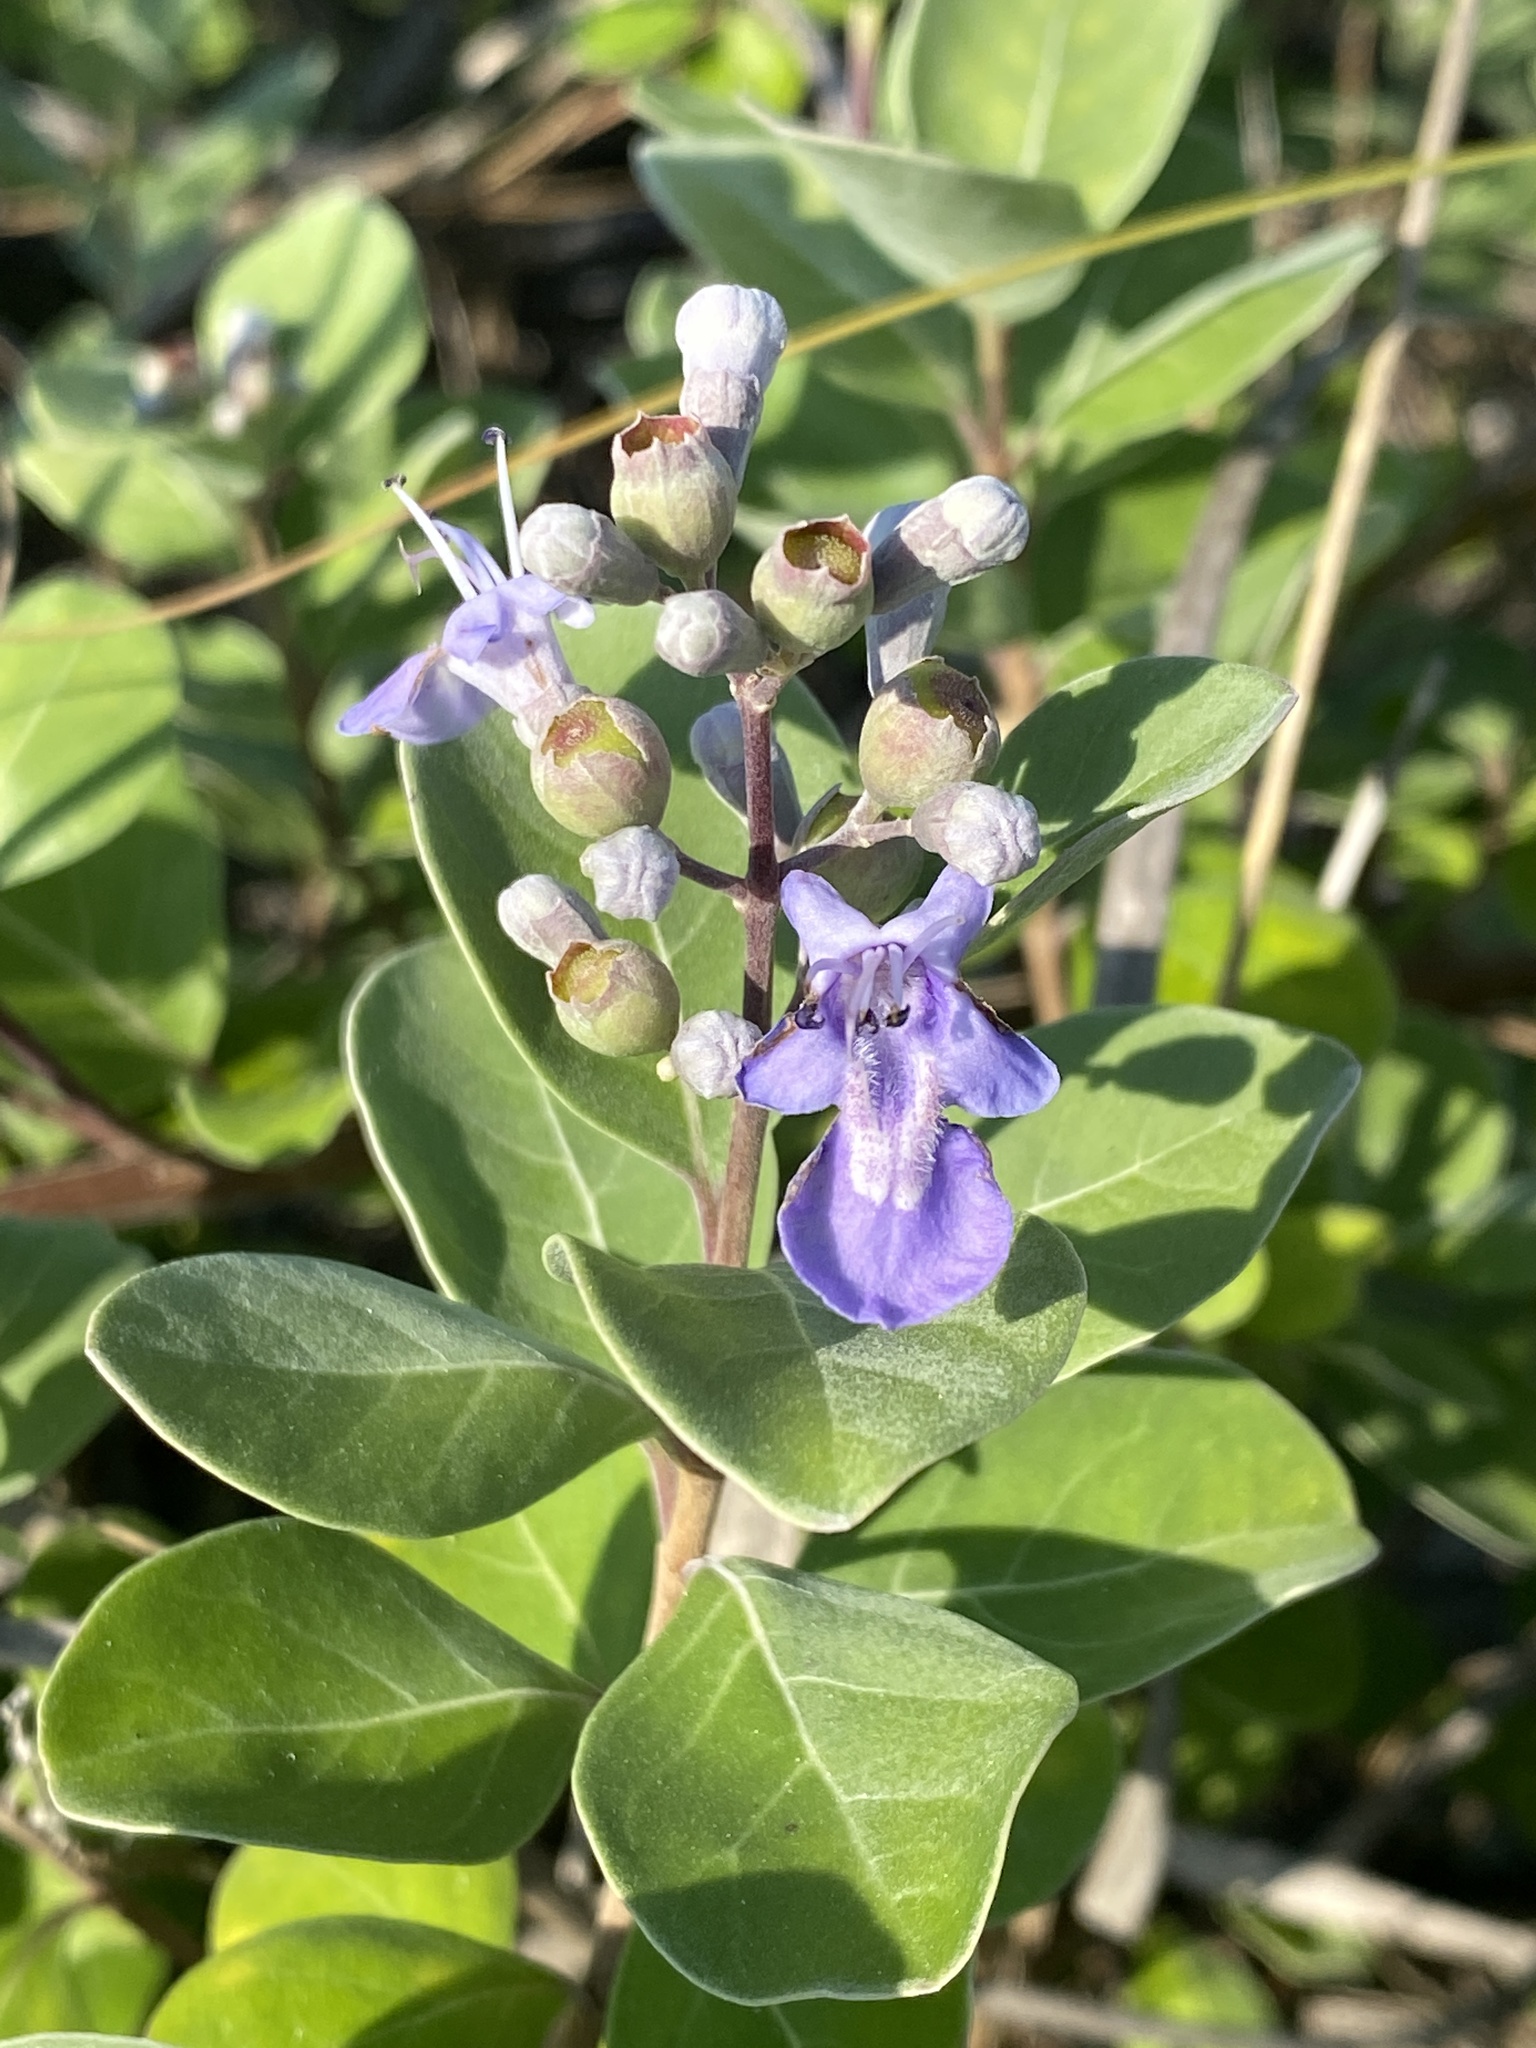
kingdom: Plantae
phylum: Tracheophyta
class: Magnoliopsida
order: Lamiales
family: Lamiaceae
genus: Vitex
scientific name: Vitex rotundifolia
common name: Beach vitex
